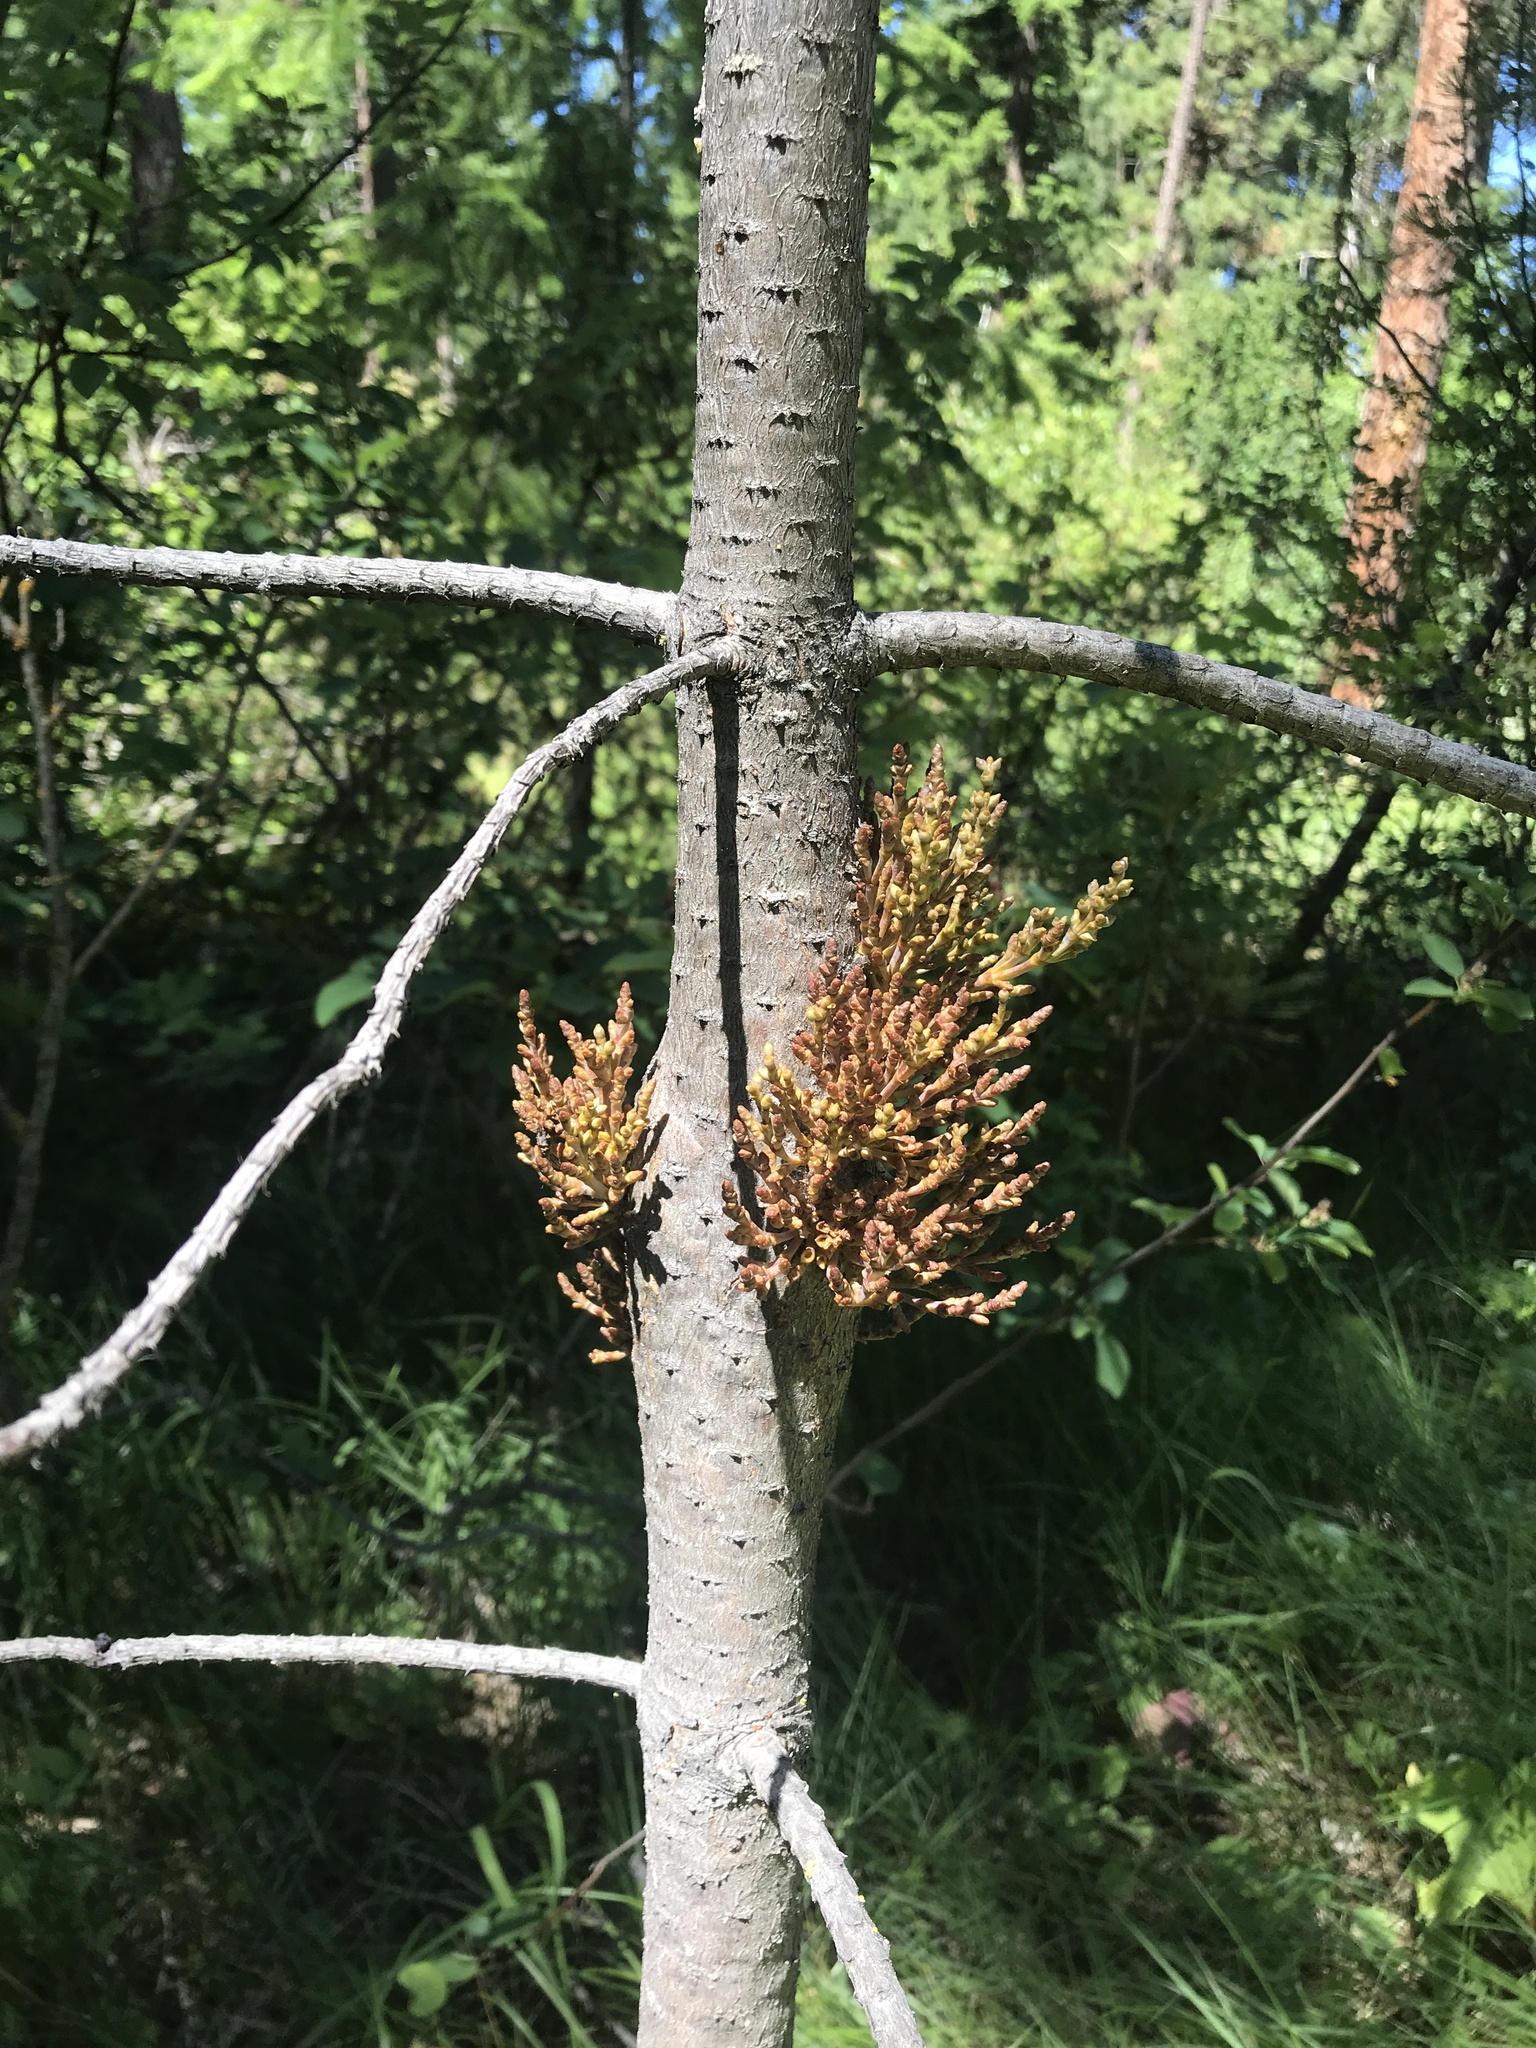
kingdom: Plantae
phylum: Tracheophyta
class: Magnoliopsida
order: Santalales
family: Viscaceae
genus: Arceuthobium
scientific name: Arceuthobium campylopodum
